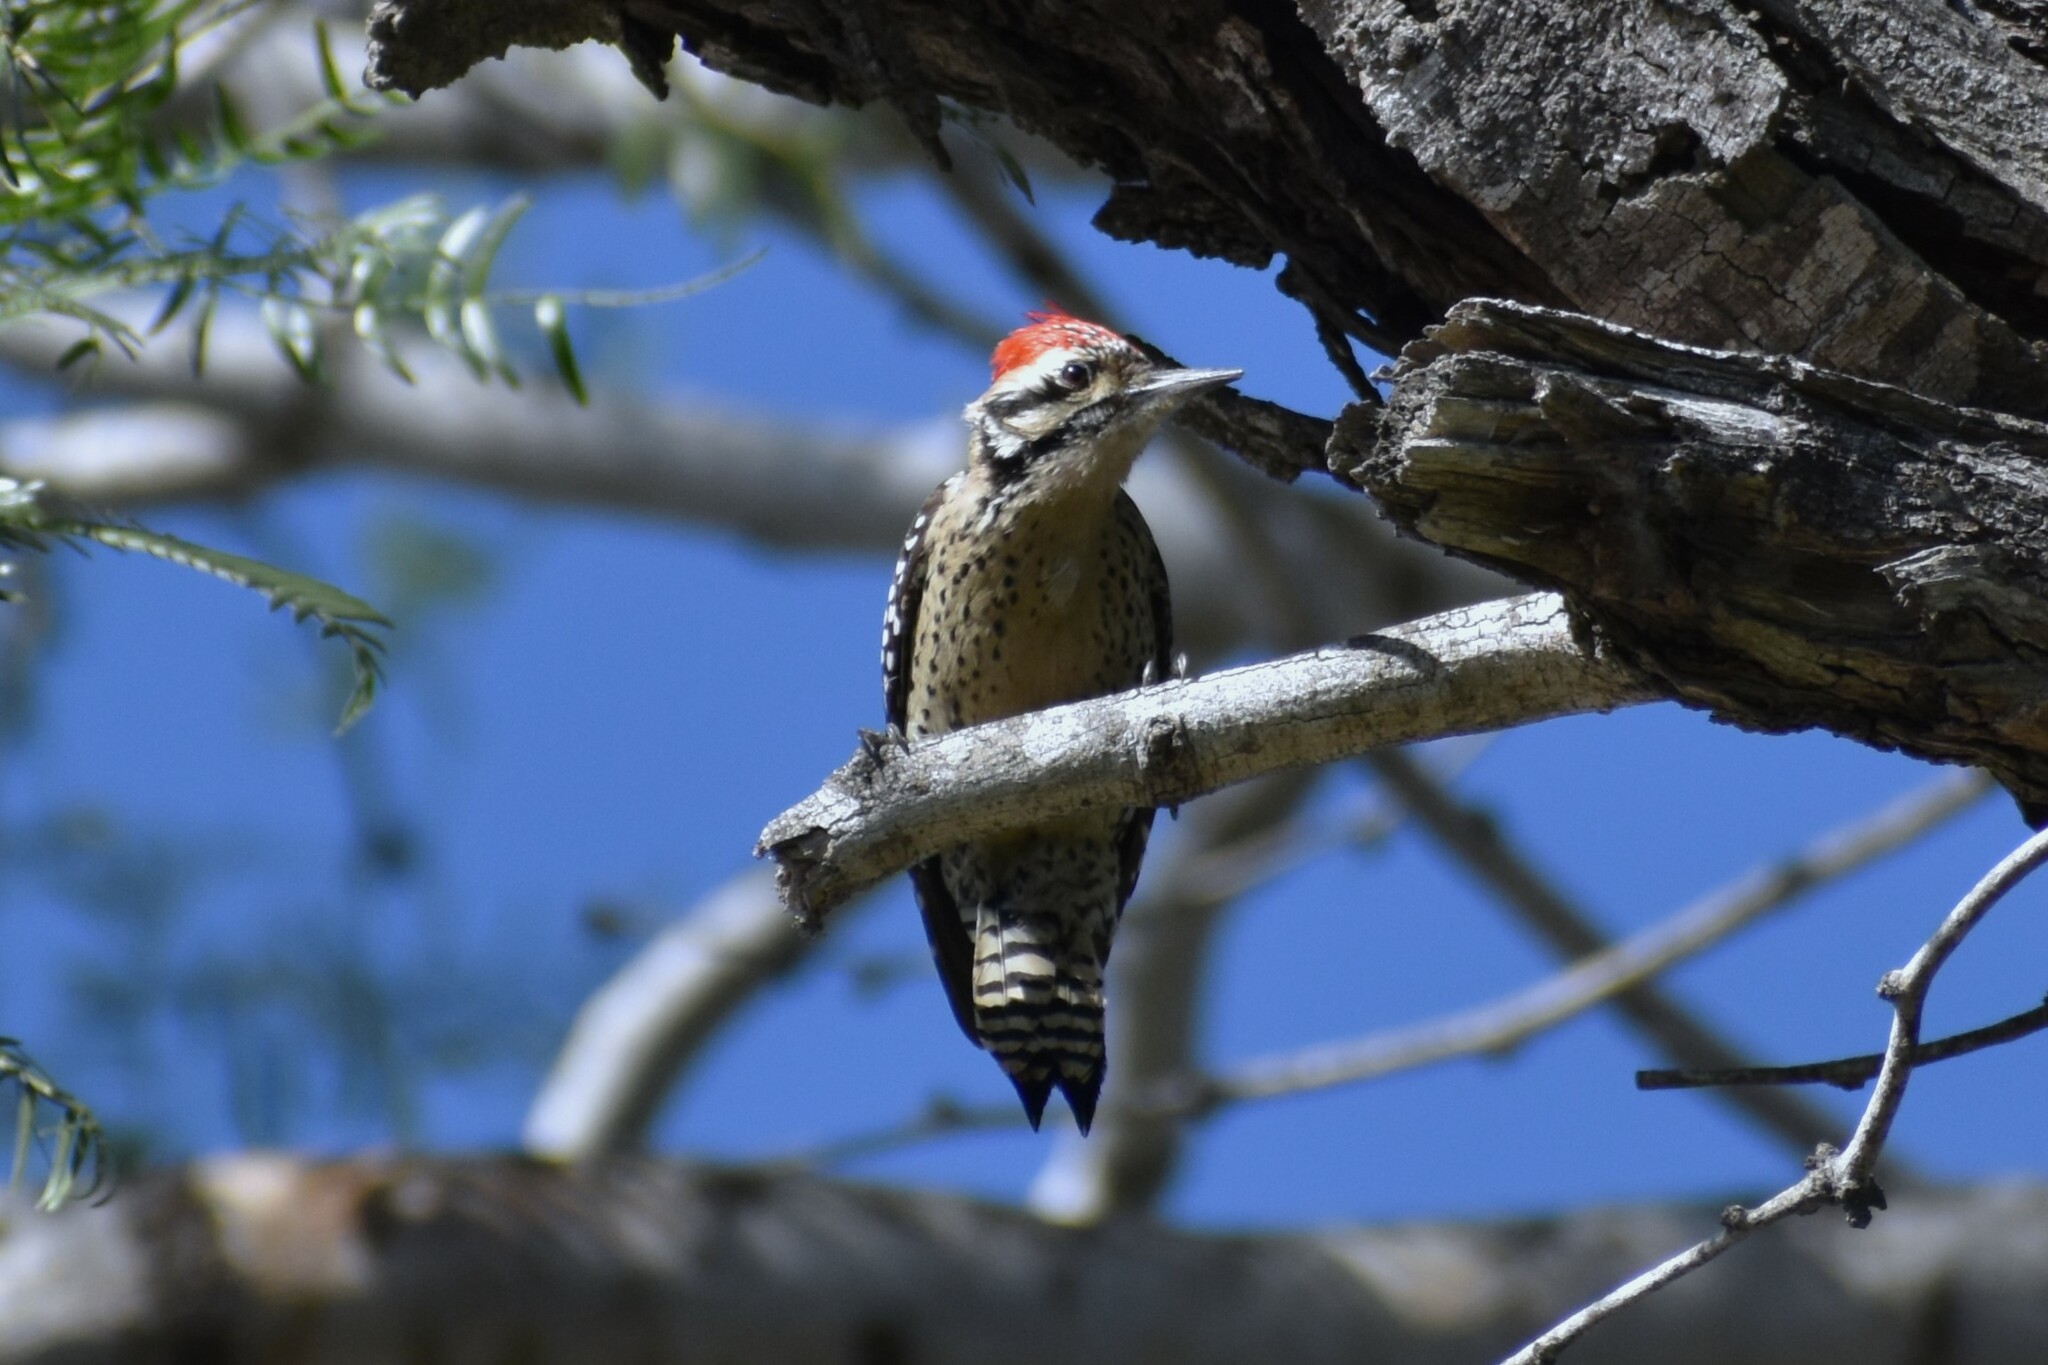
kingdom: Animalia
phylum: Chordata
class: Aves
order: Piciformes
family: Picidae
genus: Dryobates
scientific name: Dryobates scalaris
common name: Ladder-backed woodpecker
